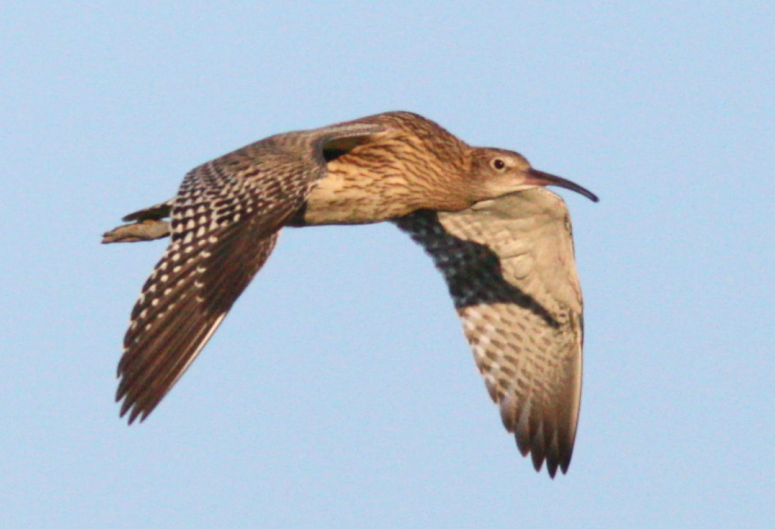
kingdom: Animalia
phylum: Chordata
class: Aves
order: Charadriiformes
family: Scolopacidae
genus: Numenius
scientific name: Numenius phaeopus
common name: Whimbrel
